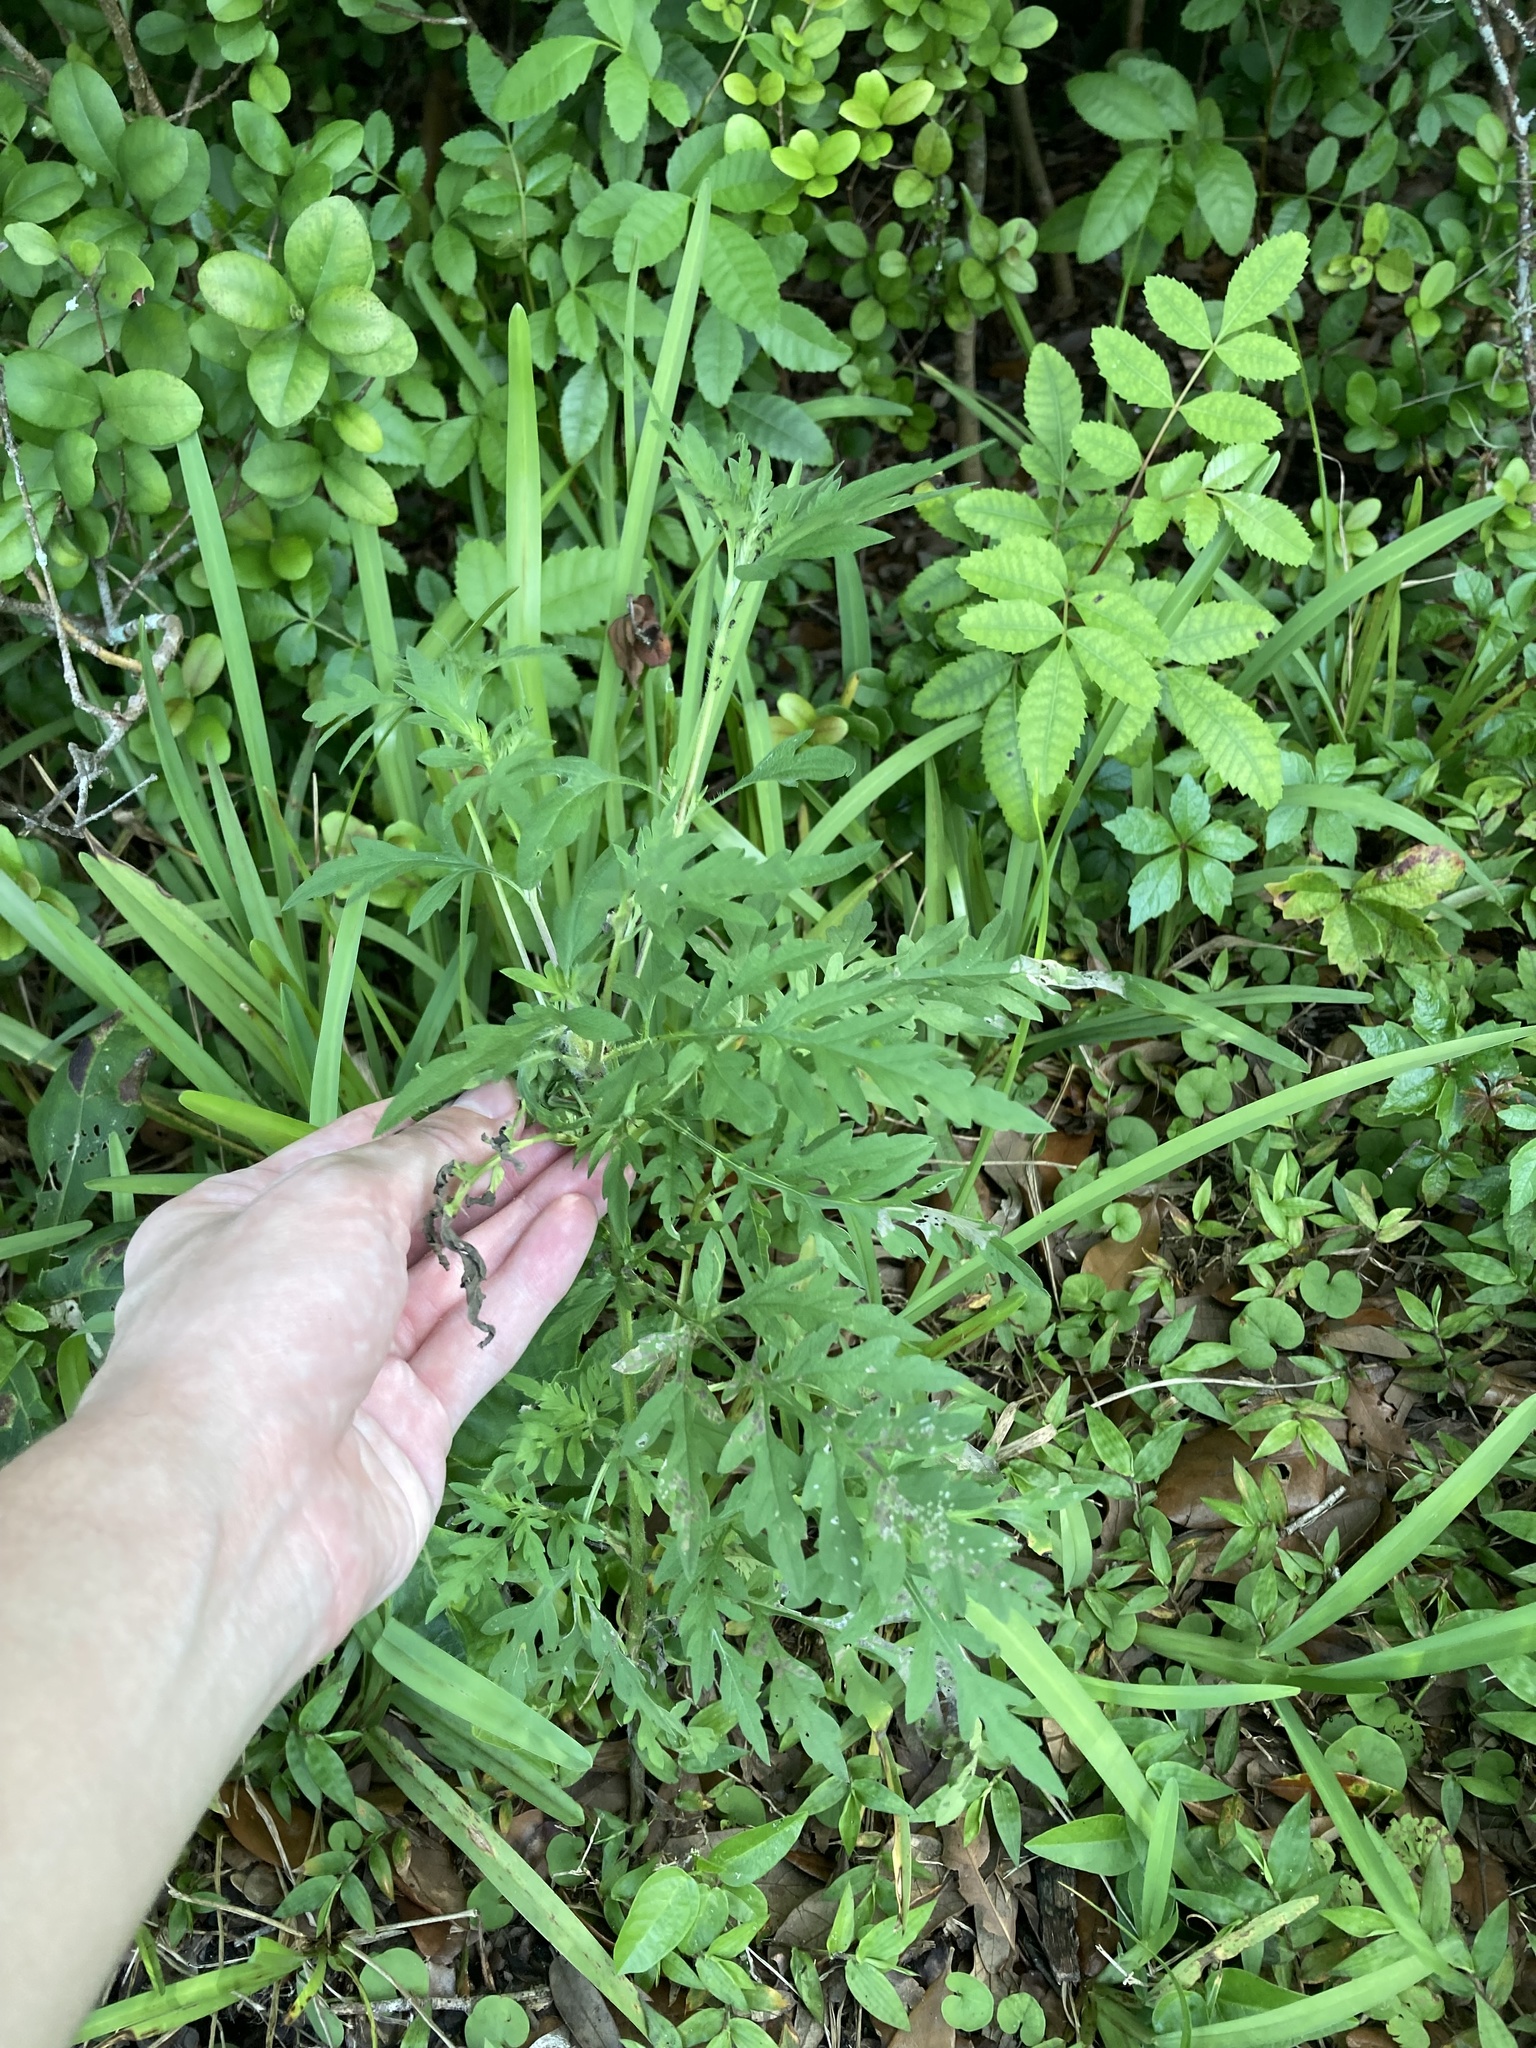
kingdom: Plantae
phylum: Tracheophyta
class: Magnoliopsida
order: Asterales
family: Asteraceae
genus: Ambrosia
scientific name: Ambrosia artemisiifolia
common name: Annual ragweed
